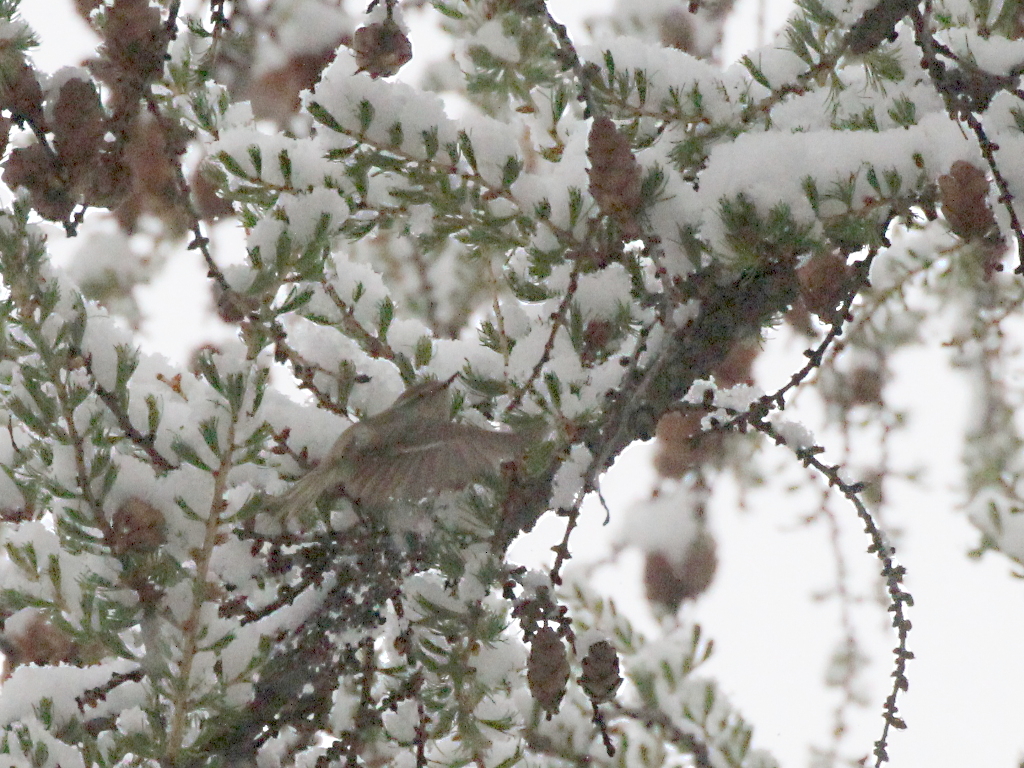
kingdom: Animalia
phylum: Chordata
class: Aves
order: Passeriformes
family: Phylloscopidae
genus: Phylloscopus
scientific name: Phylloscopus humei
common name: Hume's leaf warbler
